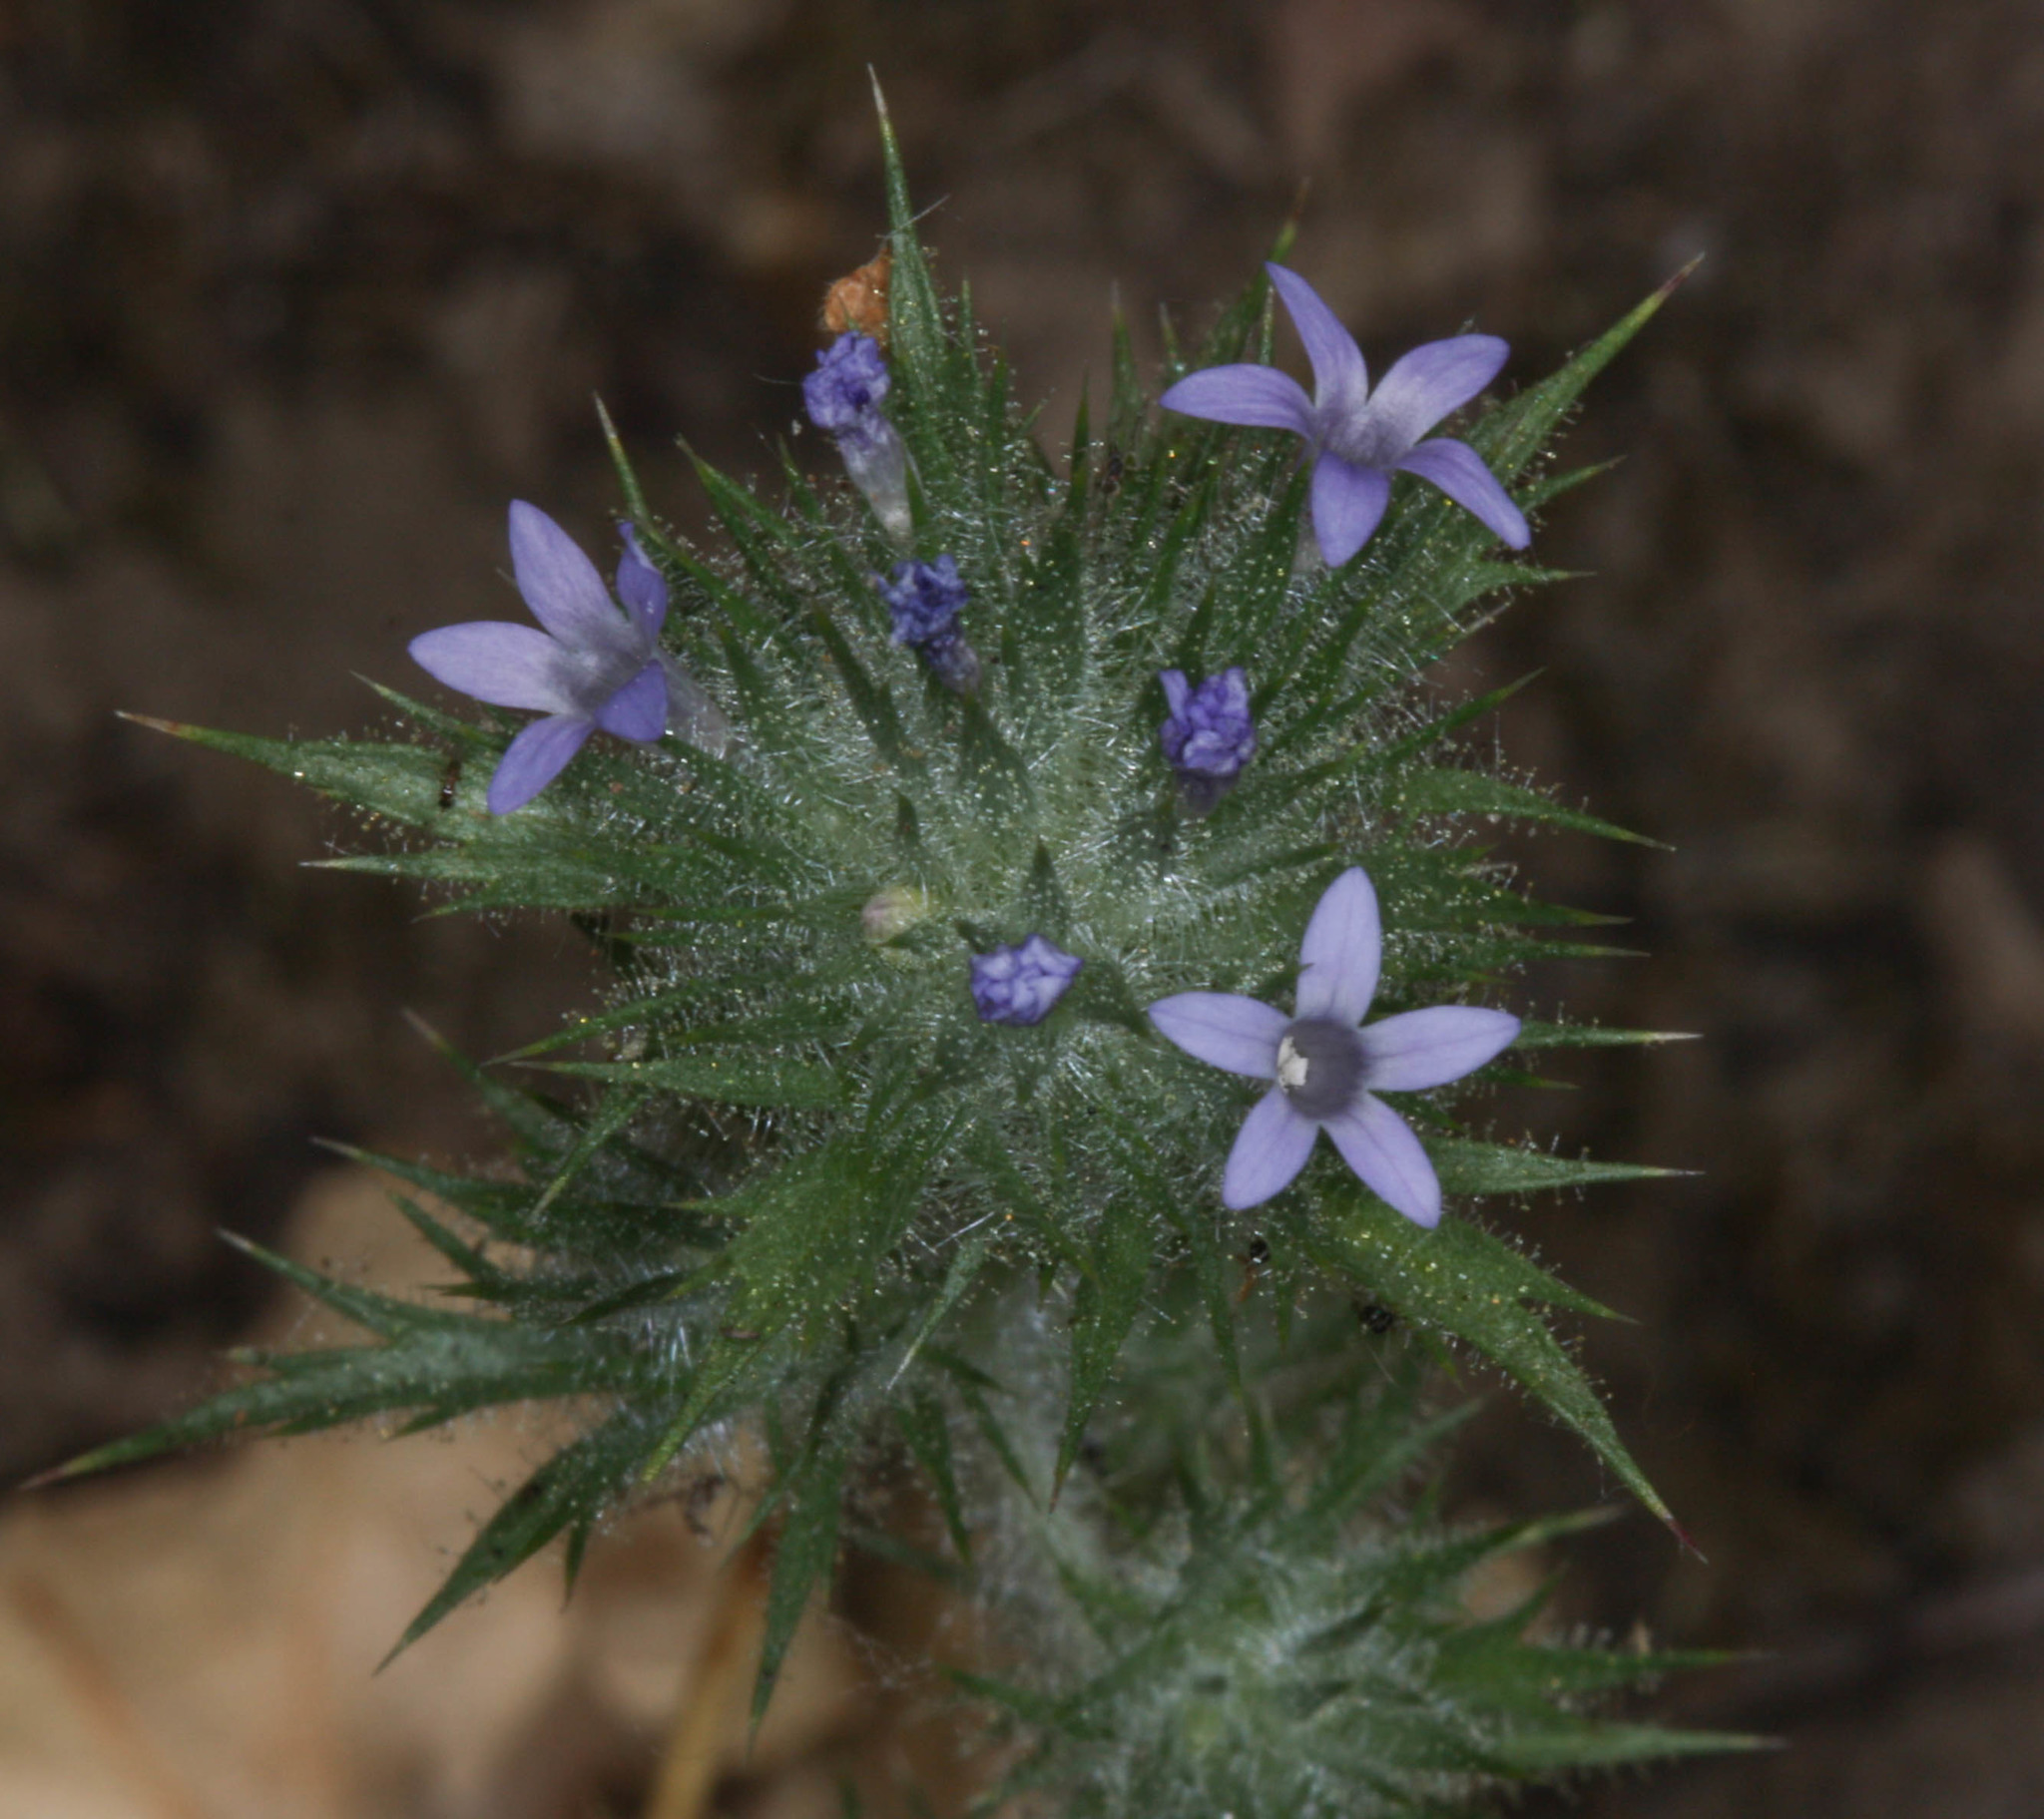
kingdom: Plantae
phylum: Tracheophyta
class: Magnoliopsida
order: Ericales
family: Polemoniaceae
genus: Navarretia
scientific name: Navarretia squarrosa
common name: Skunkweed
